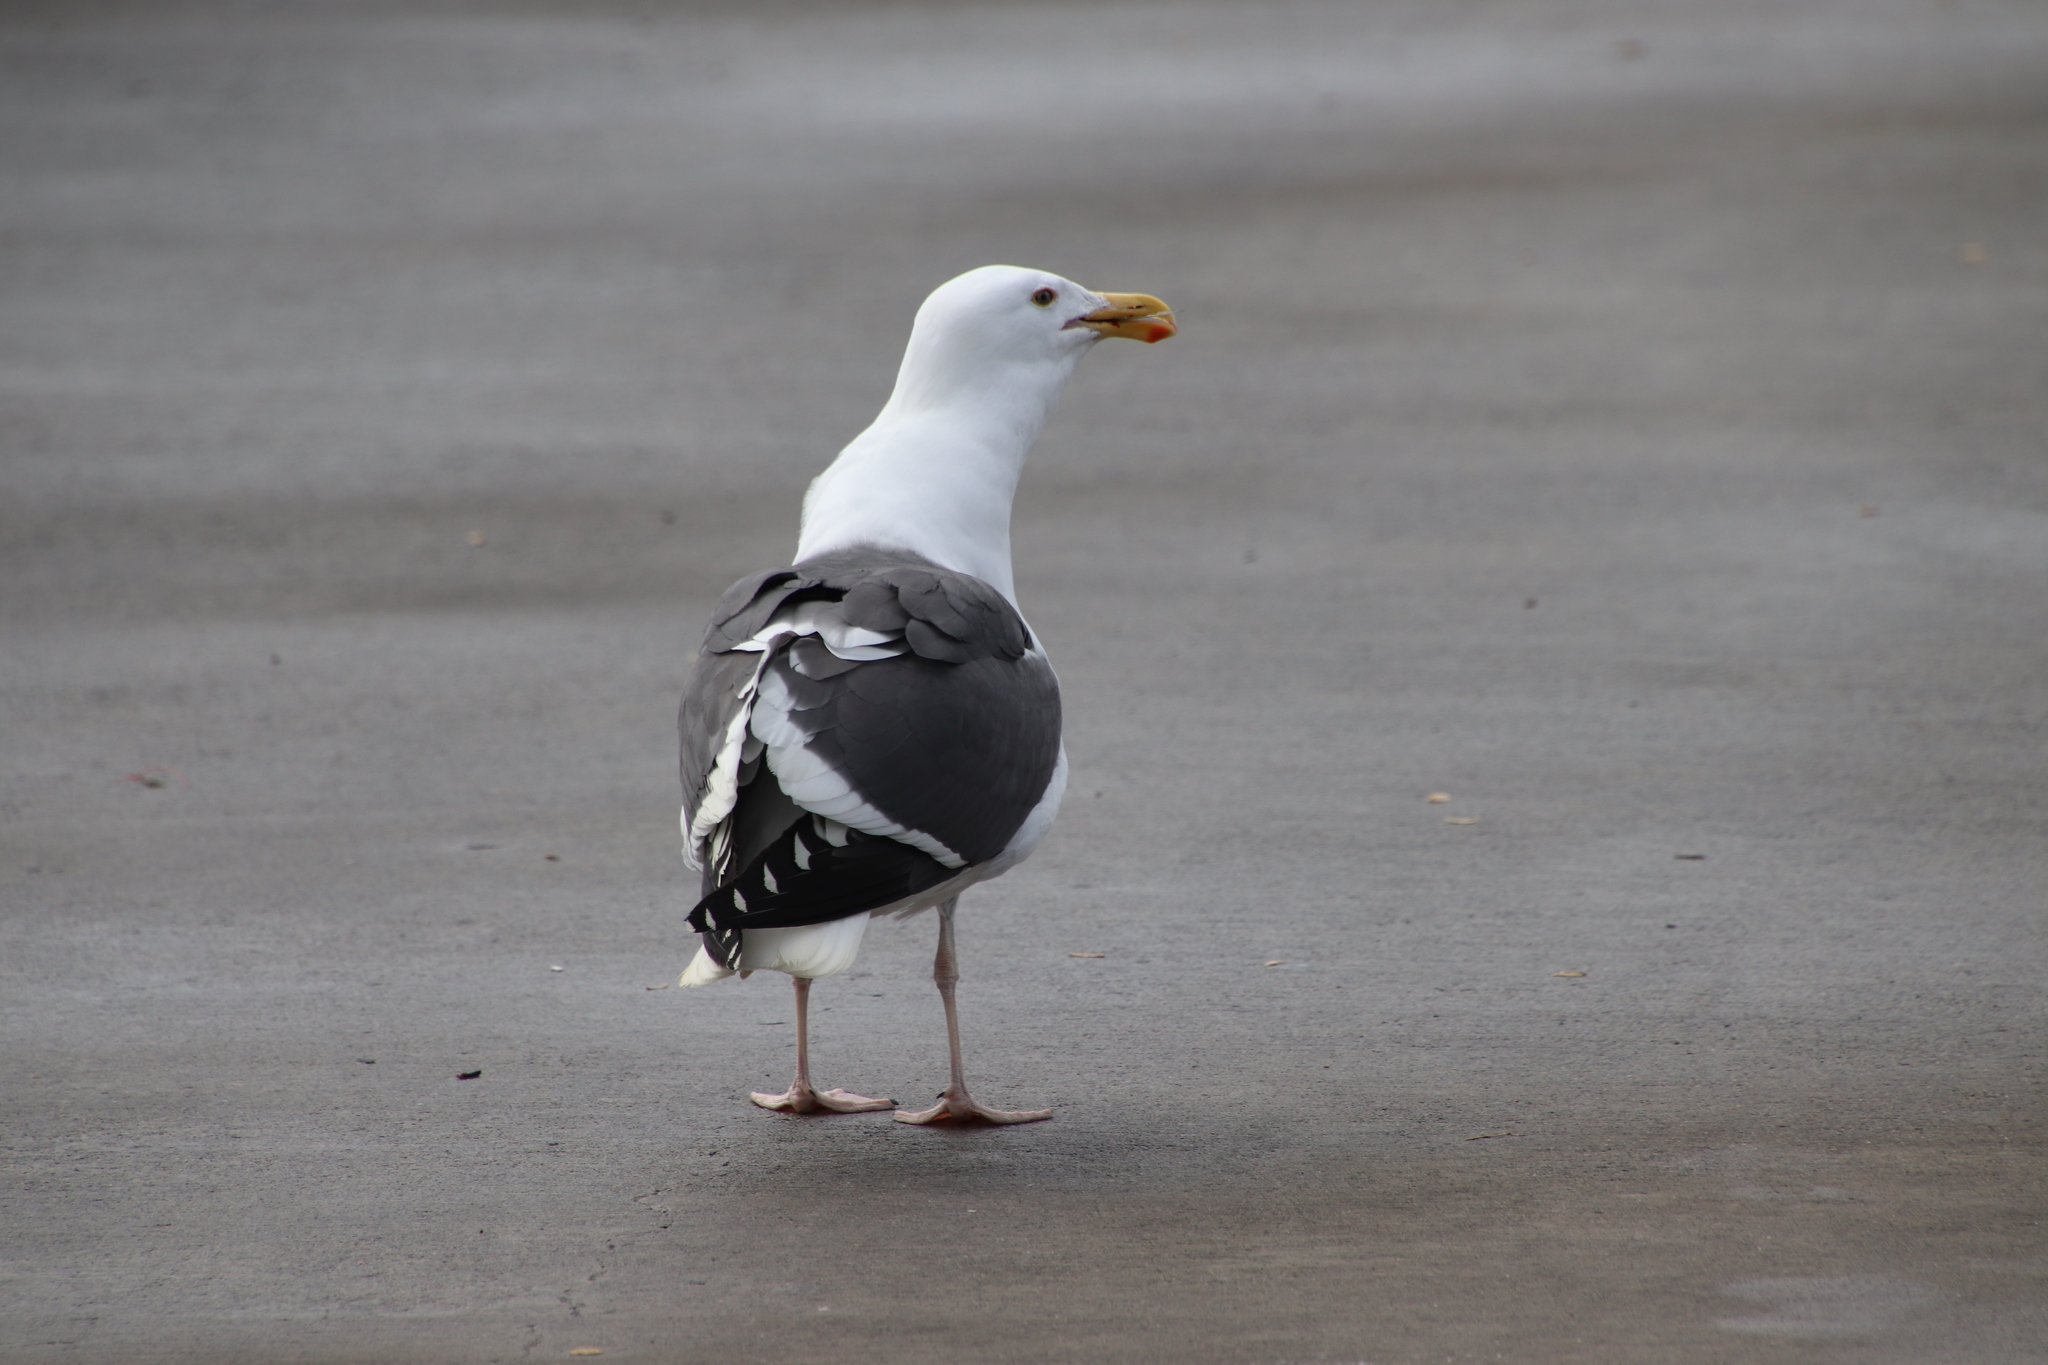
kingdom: Animalia
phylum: Chordata
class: Aves
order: Charadriiformes
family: Laridae
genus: Larus
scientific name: Larus occidentalis
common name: Western gull
